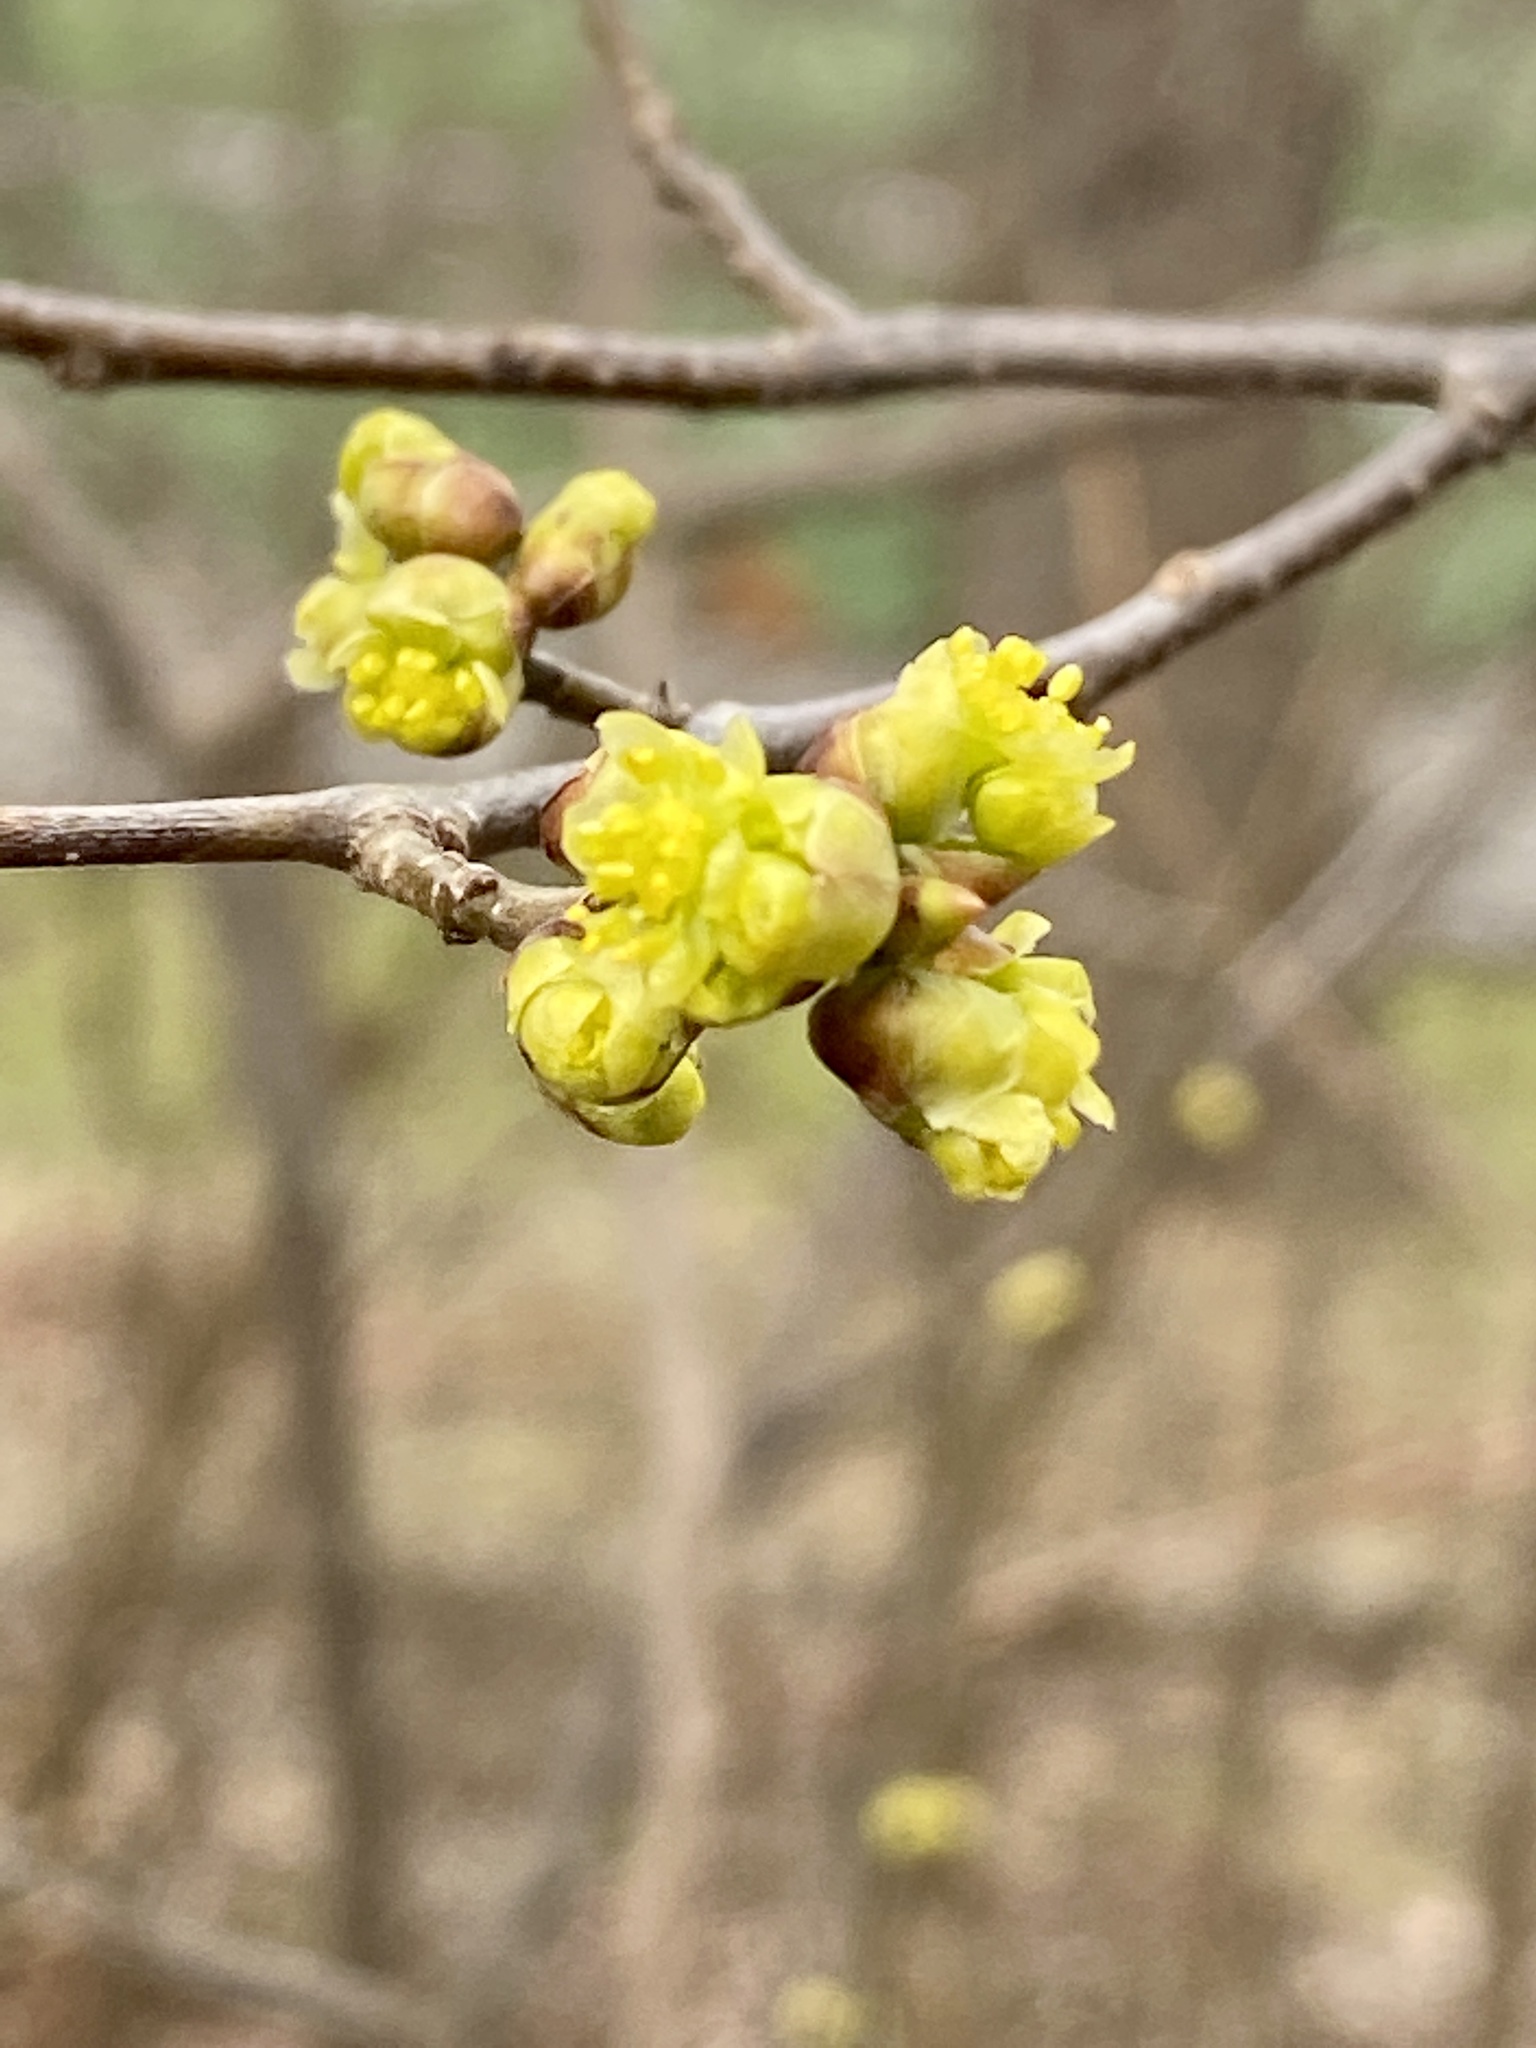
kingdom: Plantae
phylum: Tracheophyta
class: Magnoliopsida
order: Laurales
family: Lauraceae
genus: Lindera
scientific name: Lindera benzoin
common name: Spicebush
